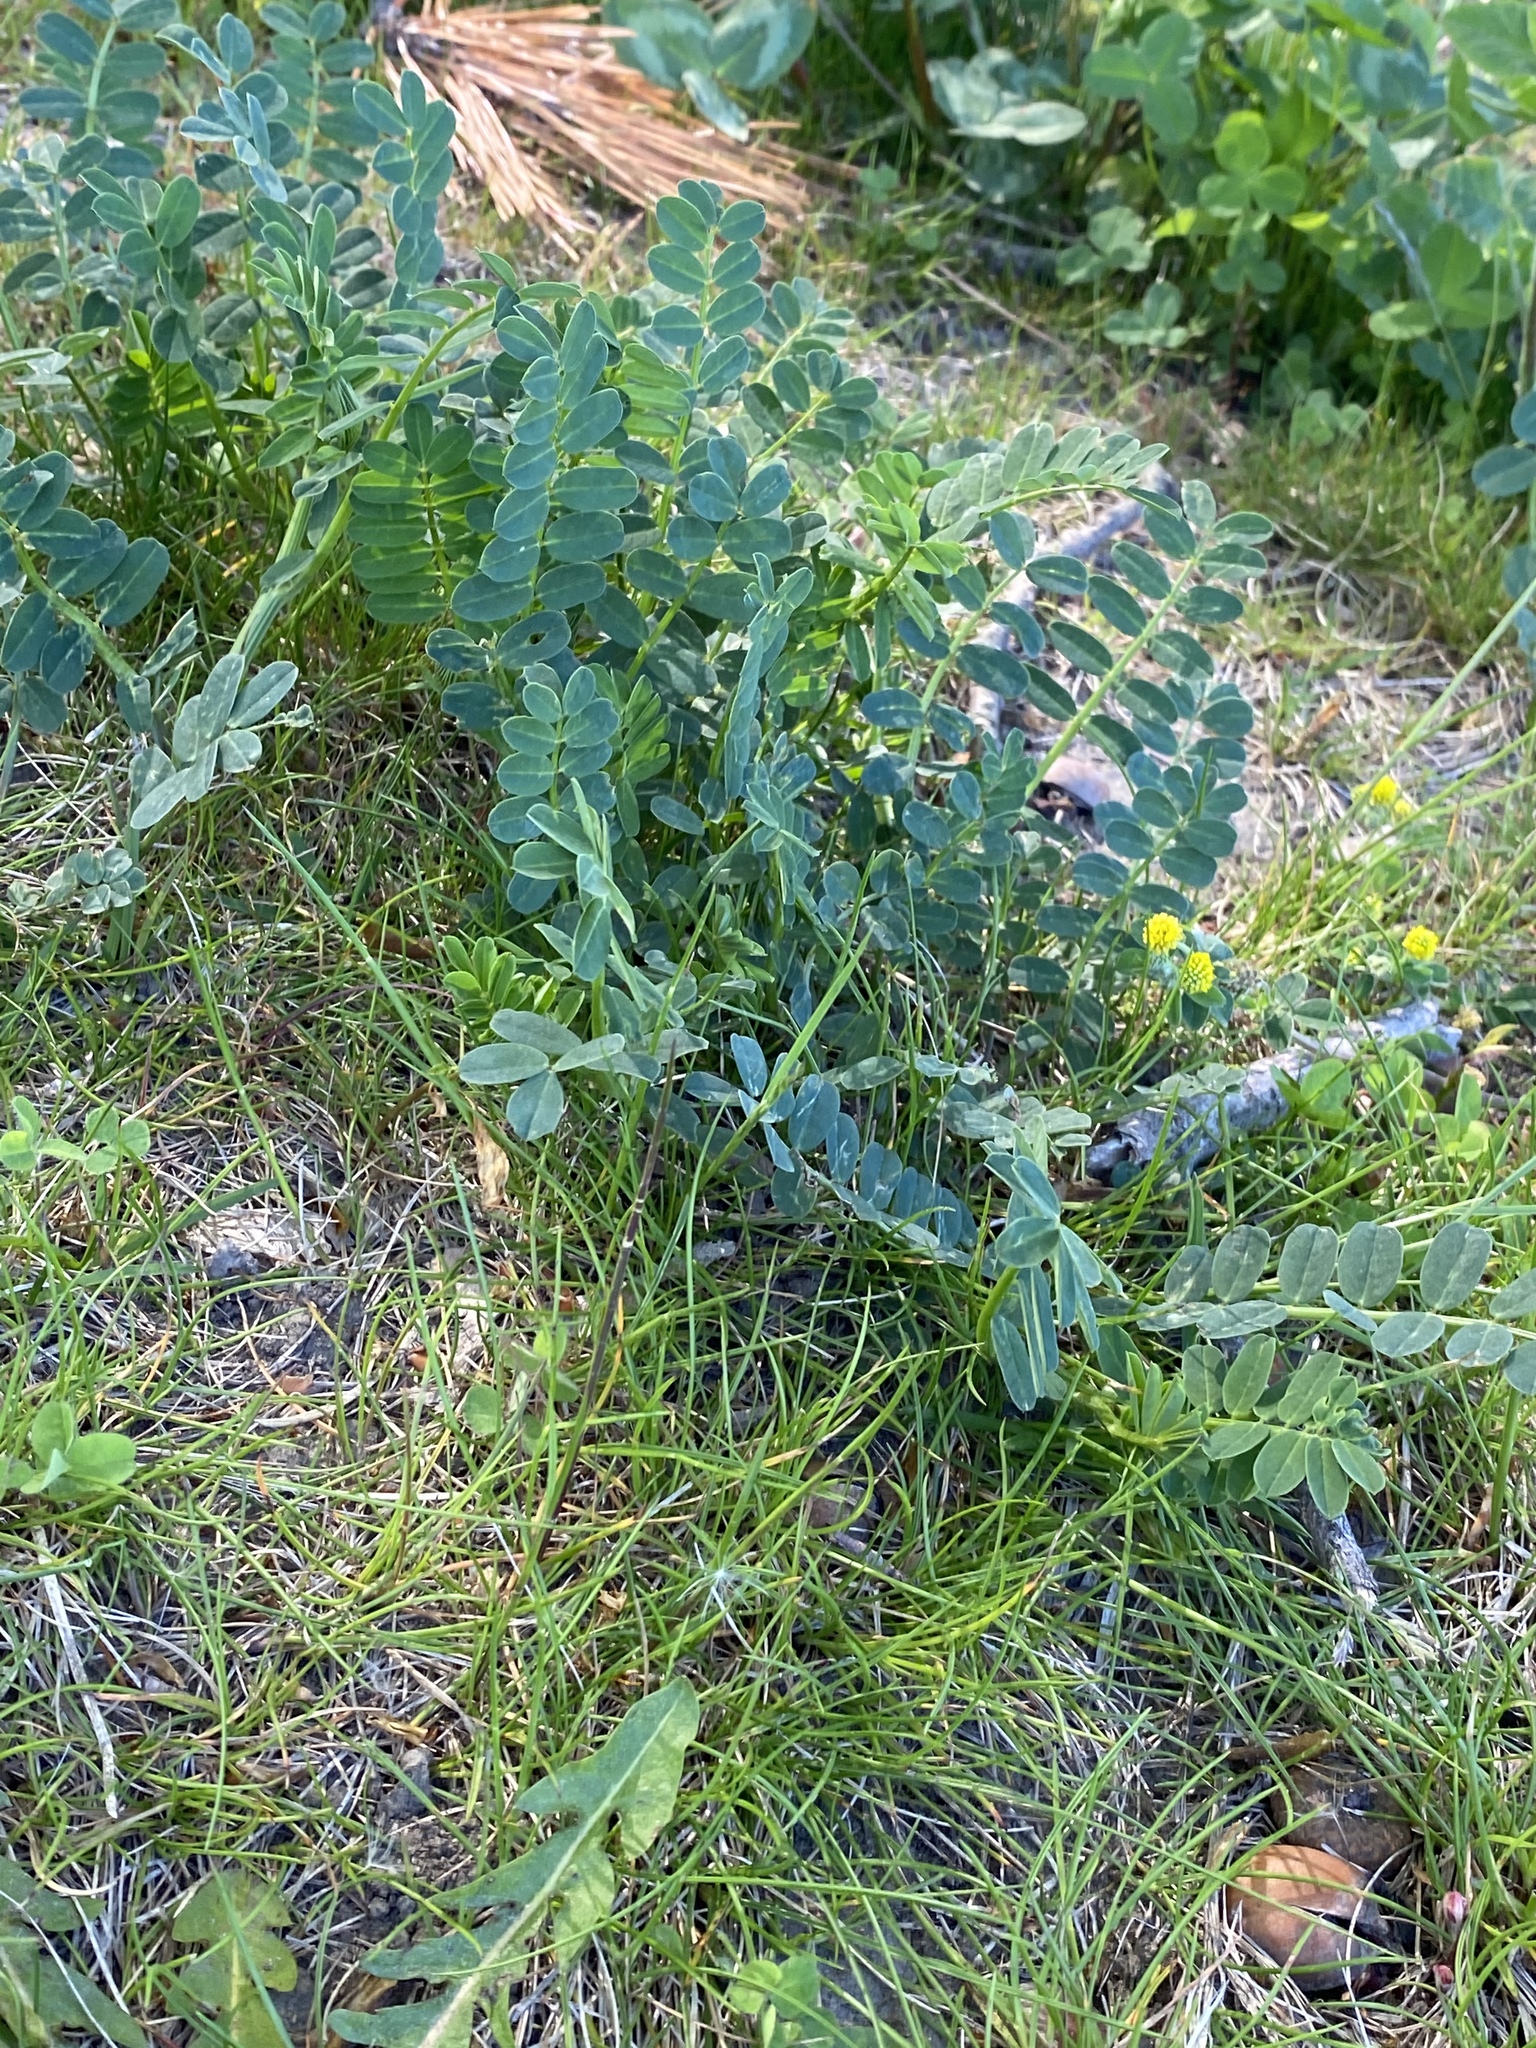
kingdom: Plantae
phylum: Tracheophyta
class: Magnoliopsida
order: Fabales
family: Fabaceae
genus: Coronilla
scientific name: Coronilla varia
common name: Crownvetch
